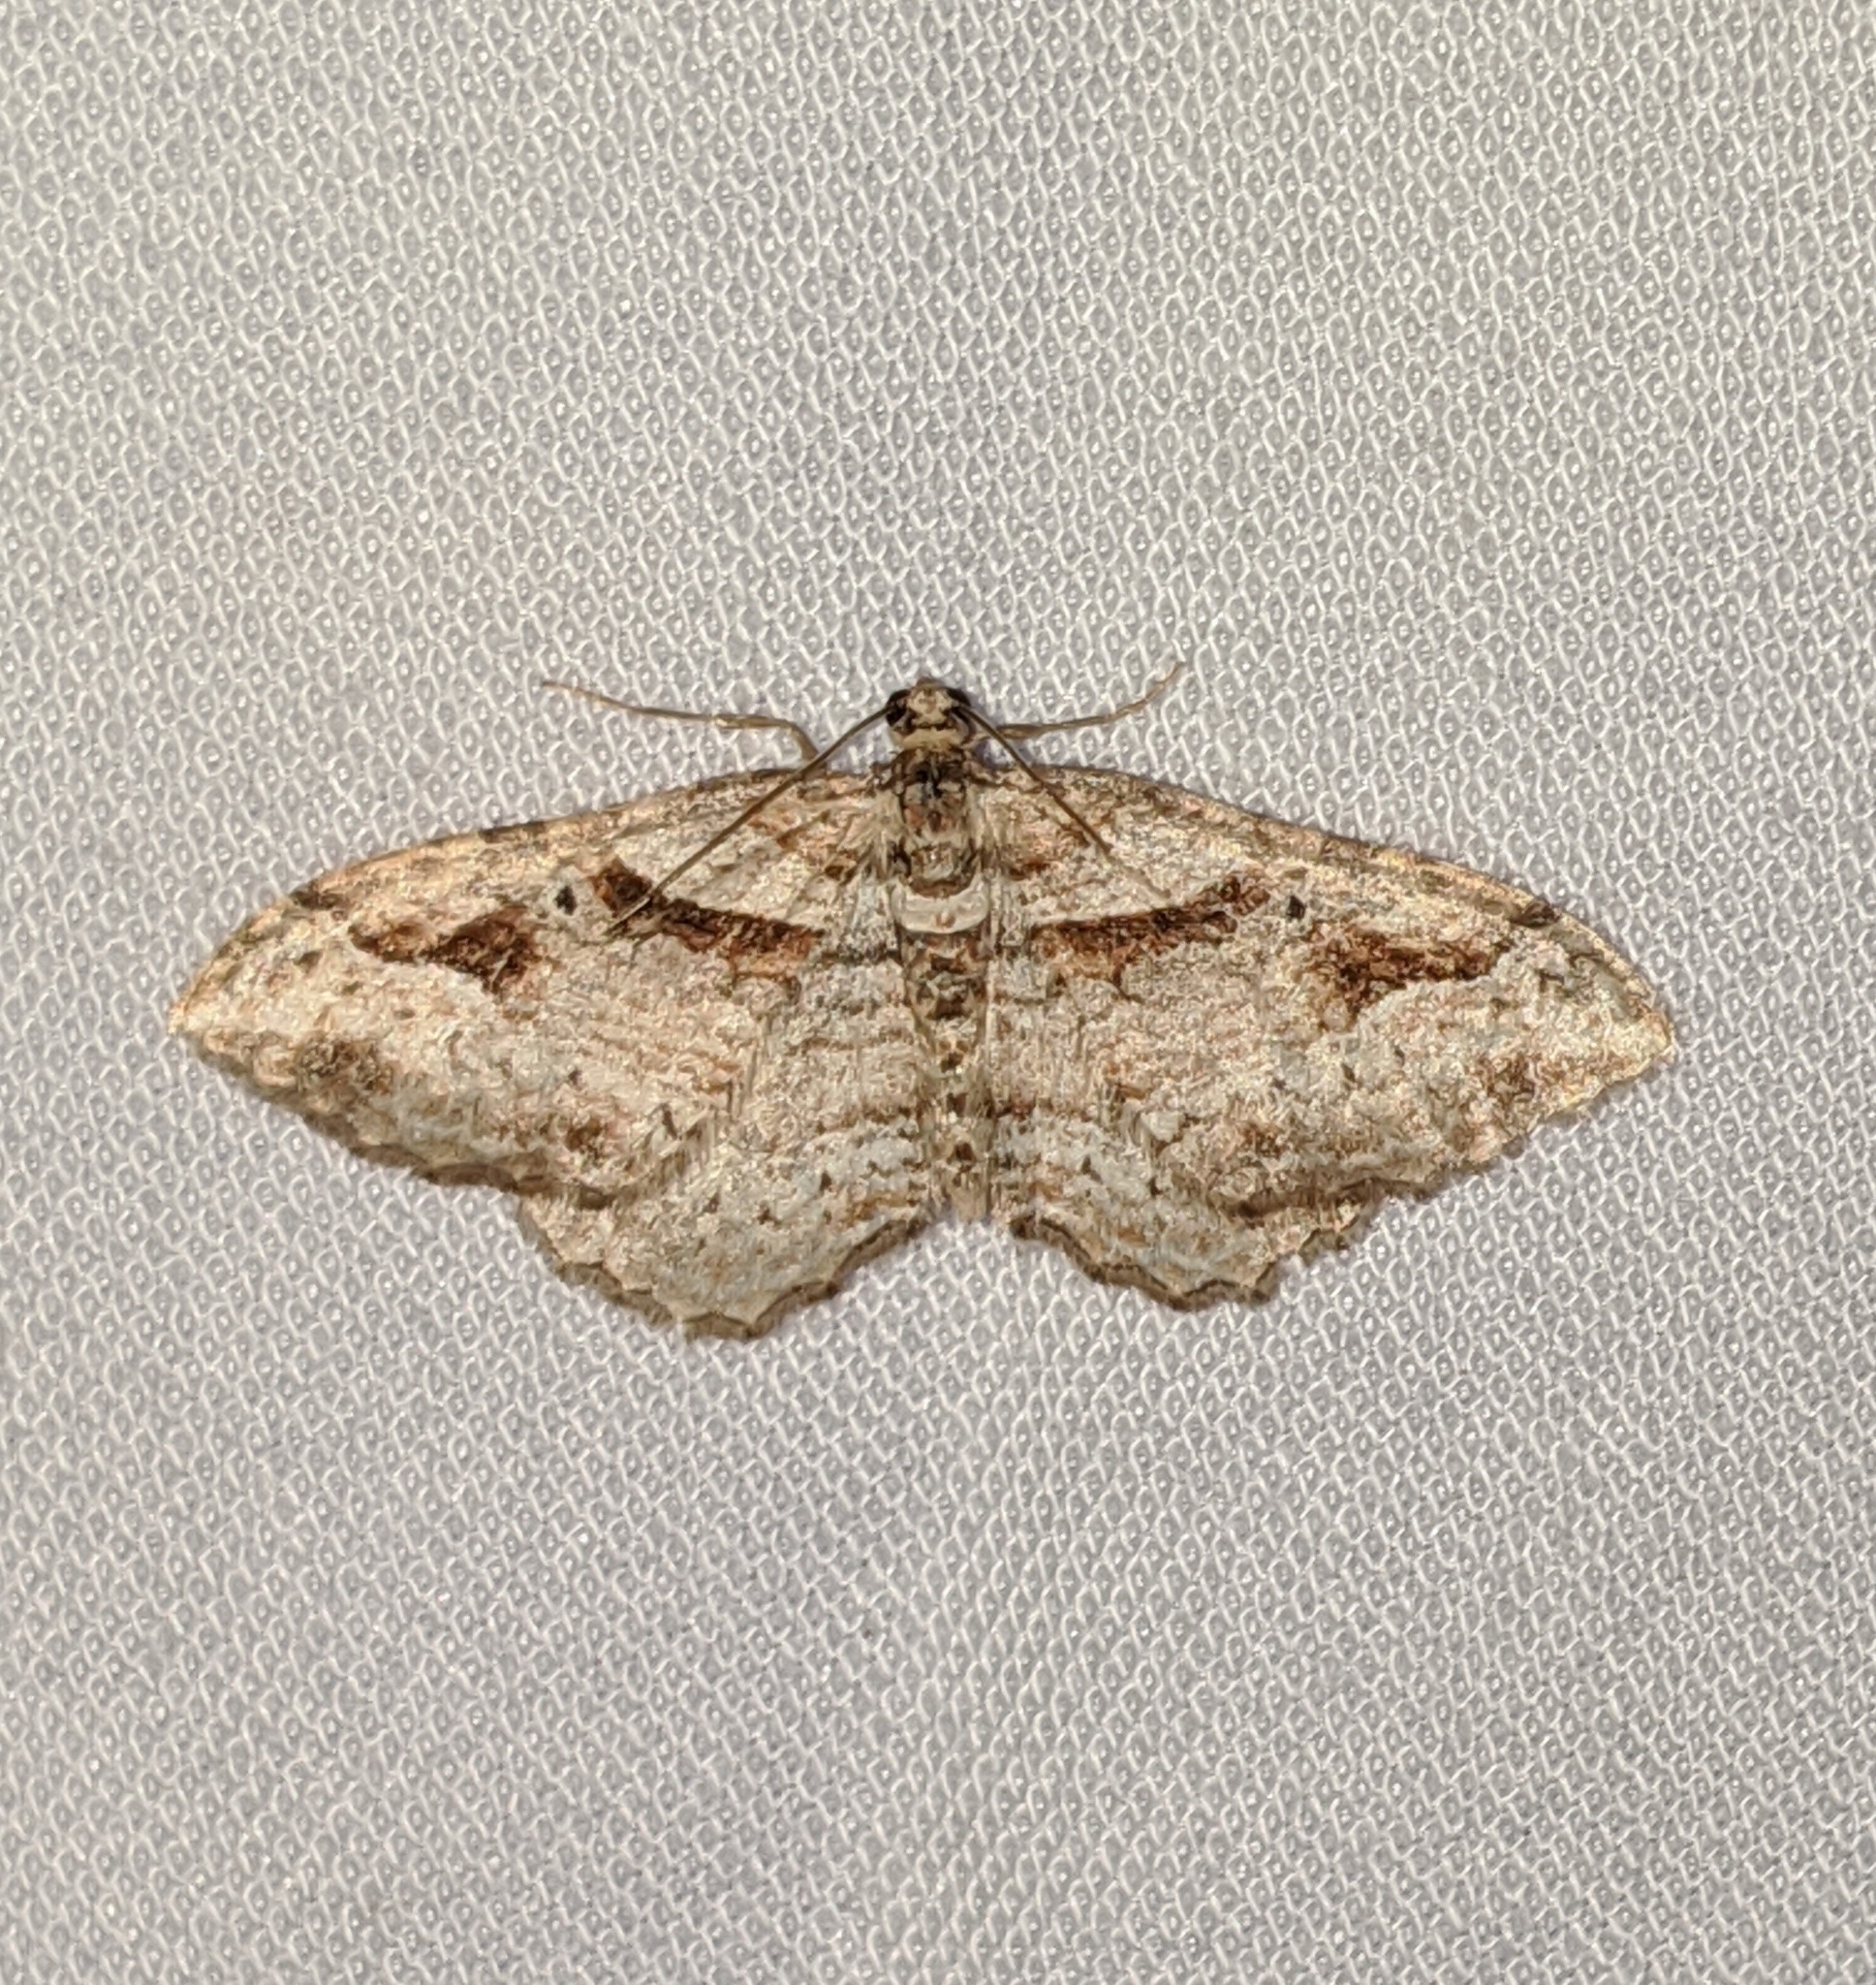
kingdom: Animalia
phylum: Arthropoda
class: Insecta
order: Lepidoptera
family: Geometridae
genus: Costaconvexa
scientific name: Costaconvexa centrostrigaria
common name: Bent-line carpet
